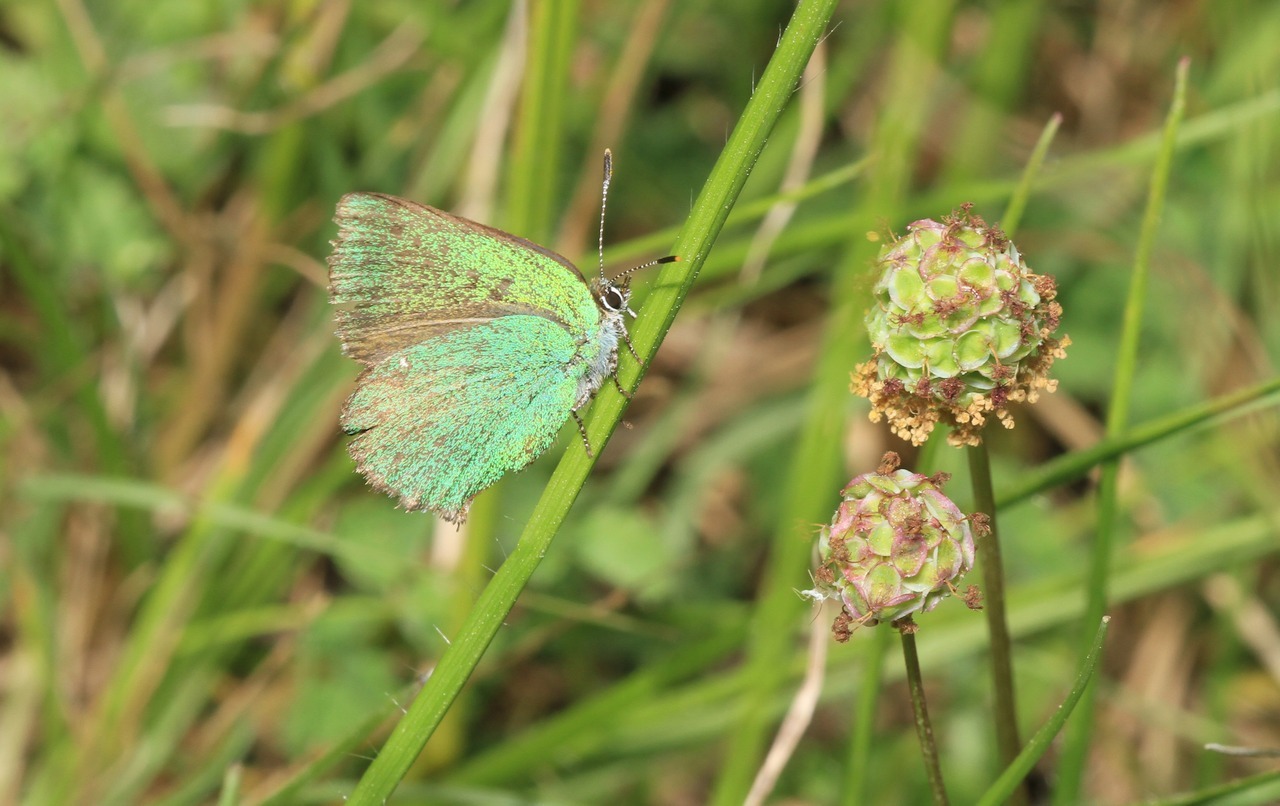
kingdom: Animalia
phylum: Arthropoda
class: Insecta
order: Lepidoptera
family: Lycaenidae
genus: Callophrys
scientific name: Callophrys rubi
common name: Green hairstreak
